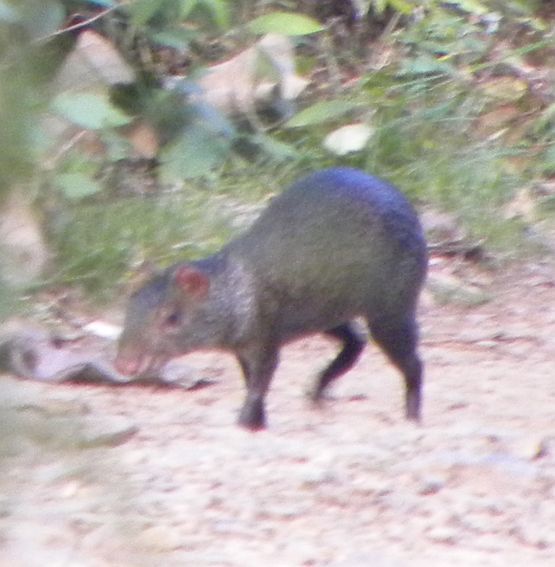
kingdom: Animalia
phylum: Chordata
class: Mammalia
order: Rodentia
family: Dasyproctidae
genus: Dasyprocta
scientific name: Dasyprocta punctata
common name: Central american agouti
